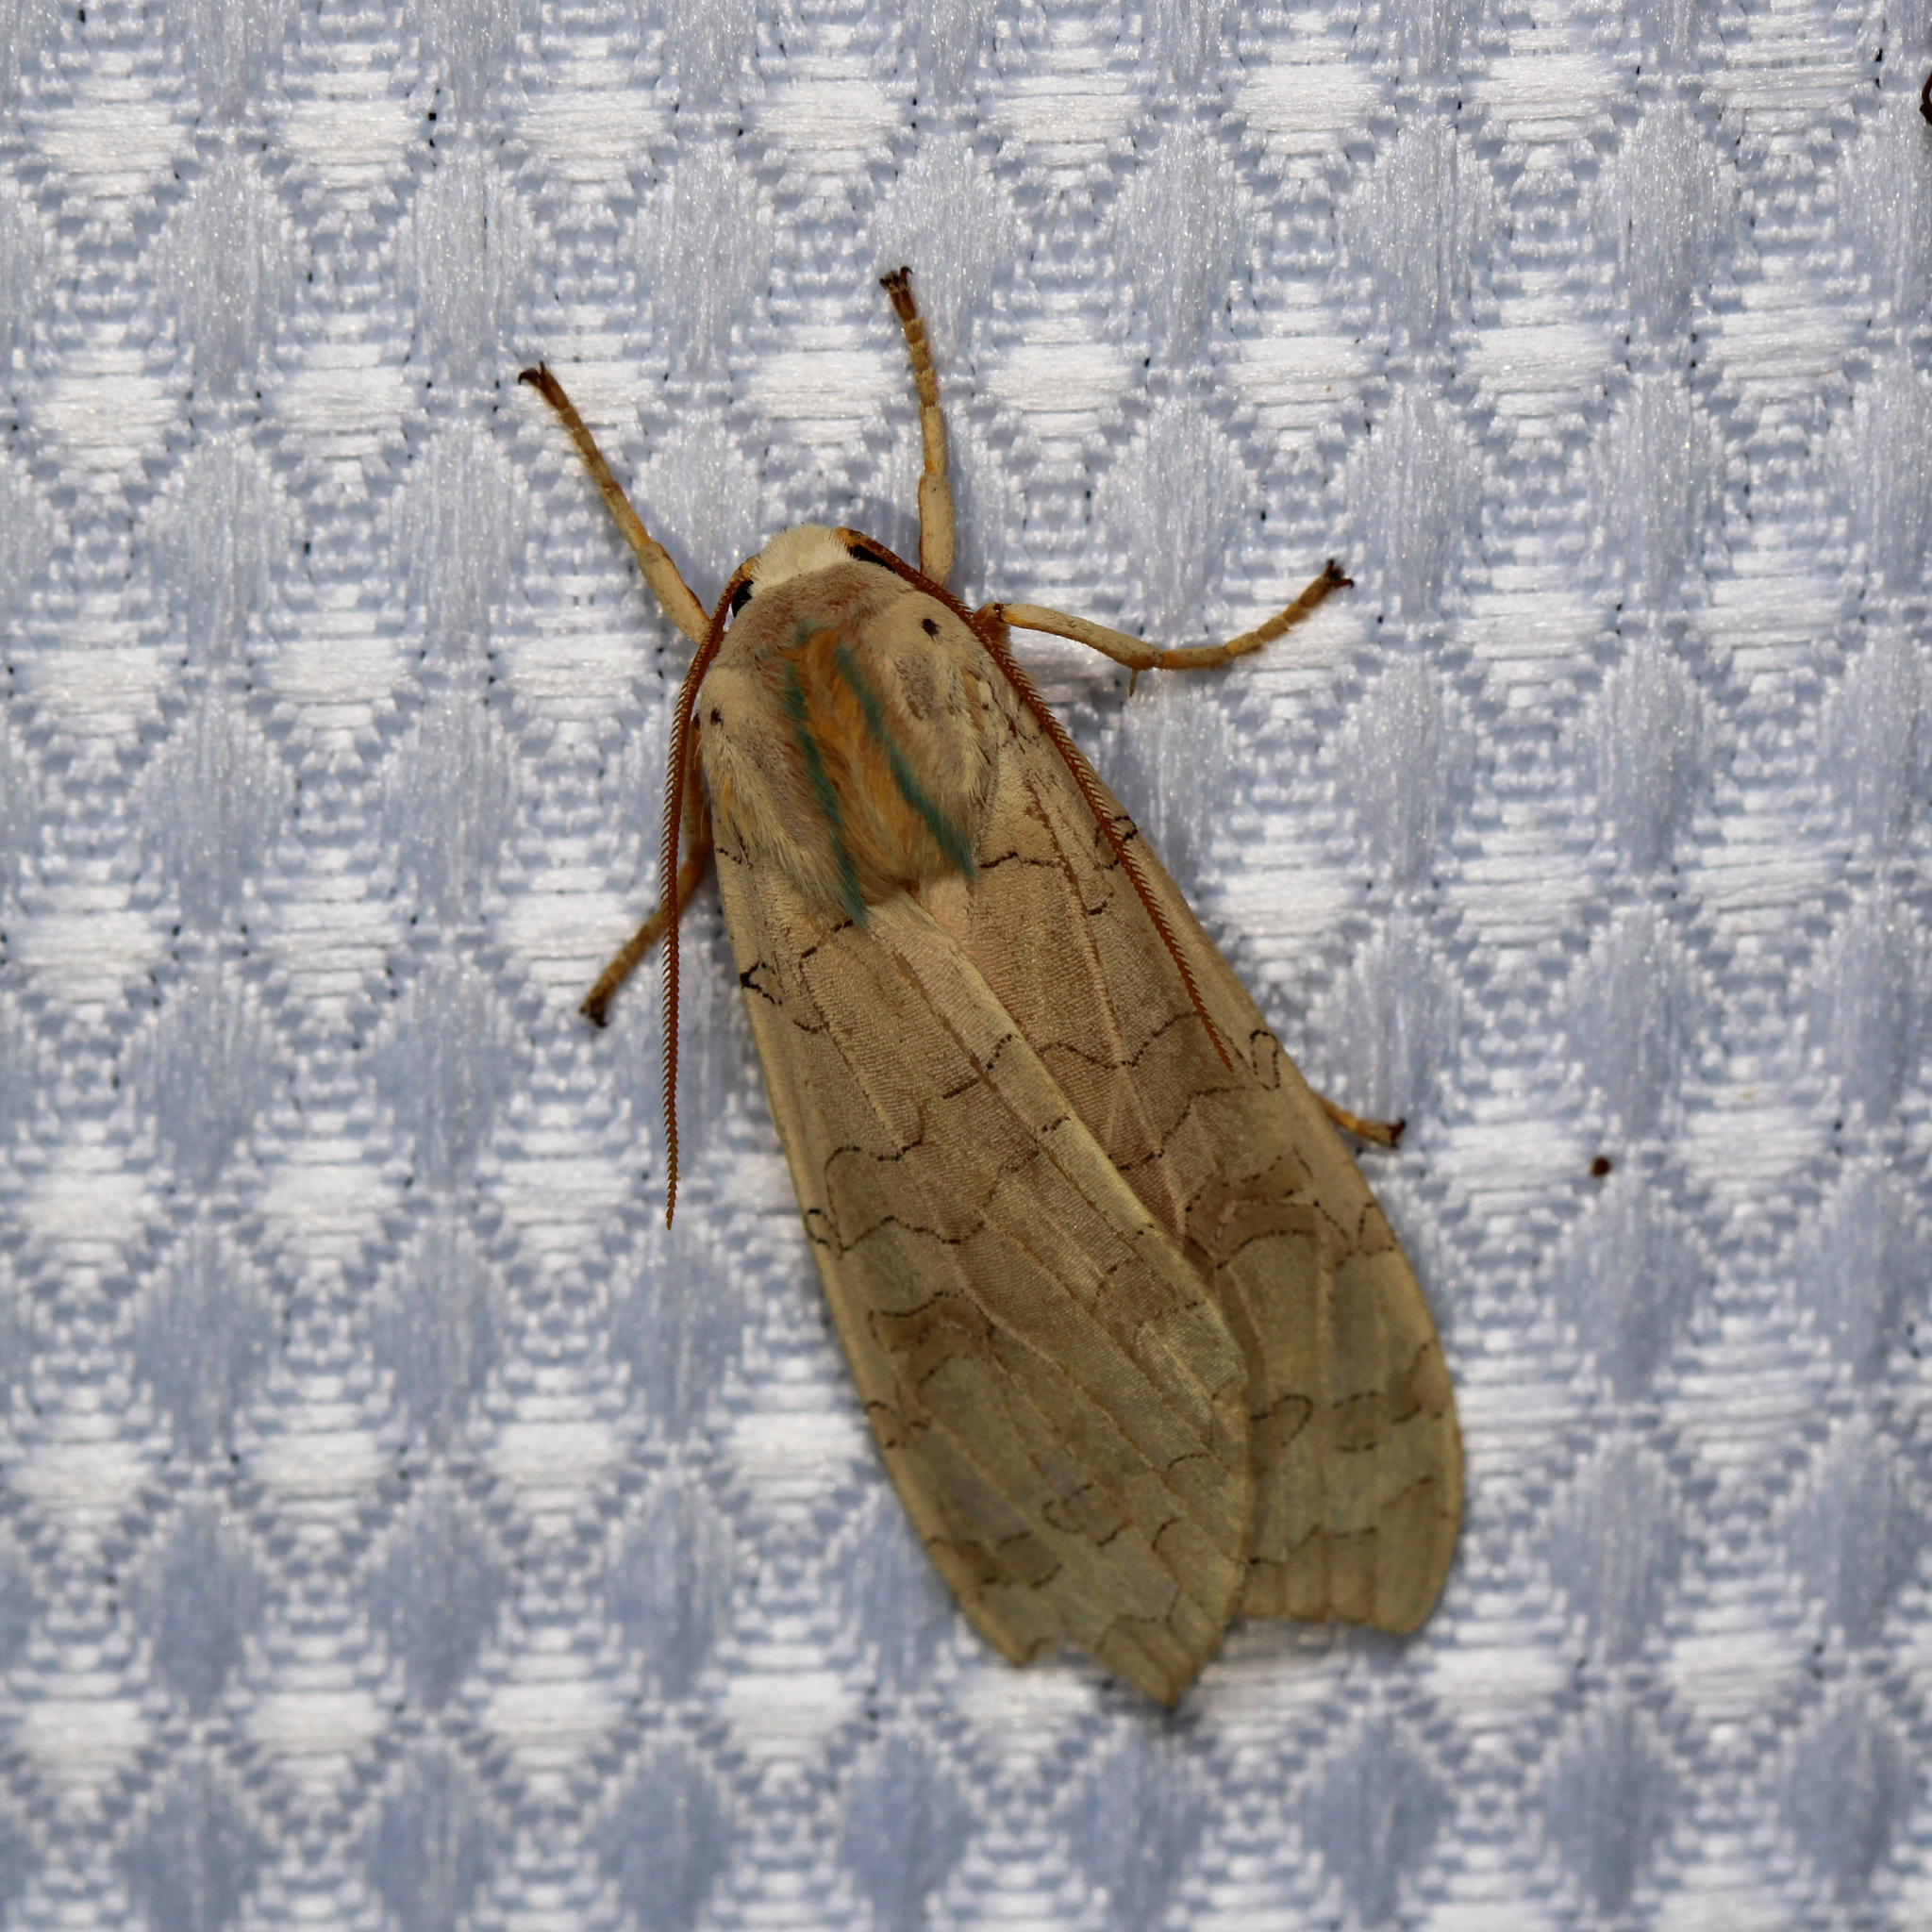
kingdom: Animalia
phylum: Arthropoda
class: Insecta
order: Lepidoptera
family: Erebidae
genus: Halysidota
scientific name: Halysidota
